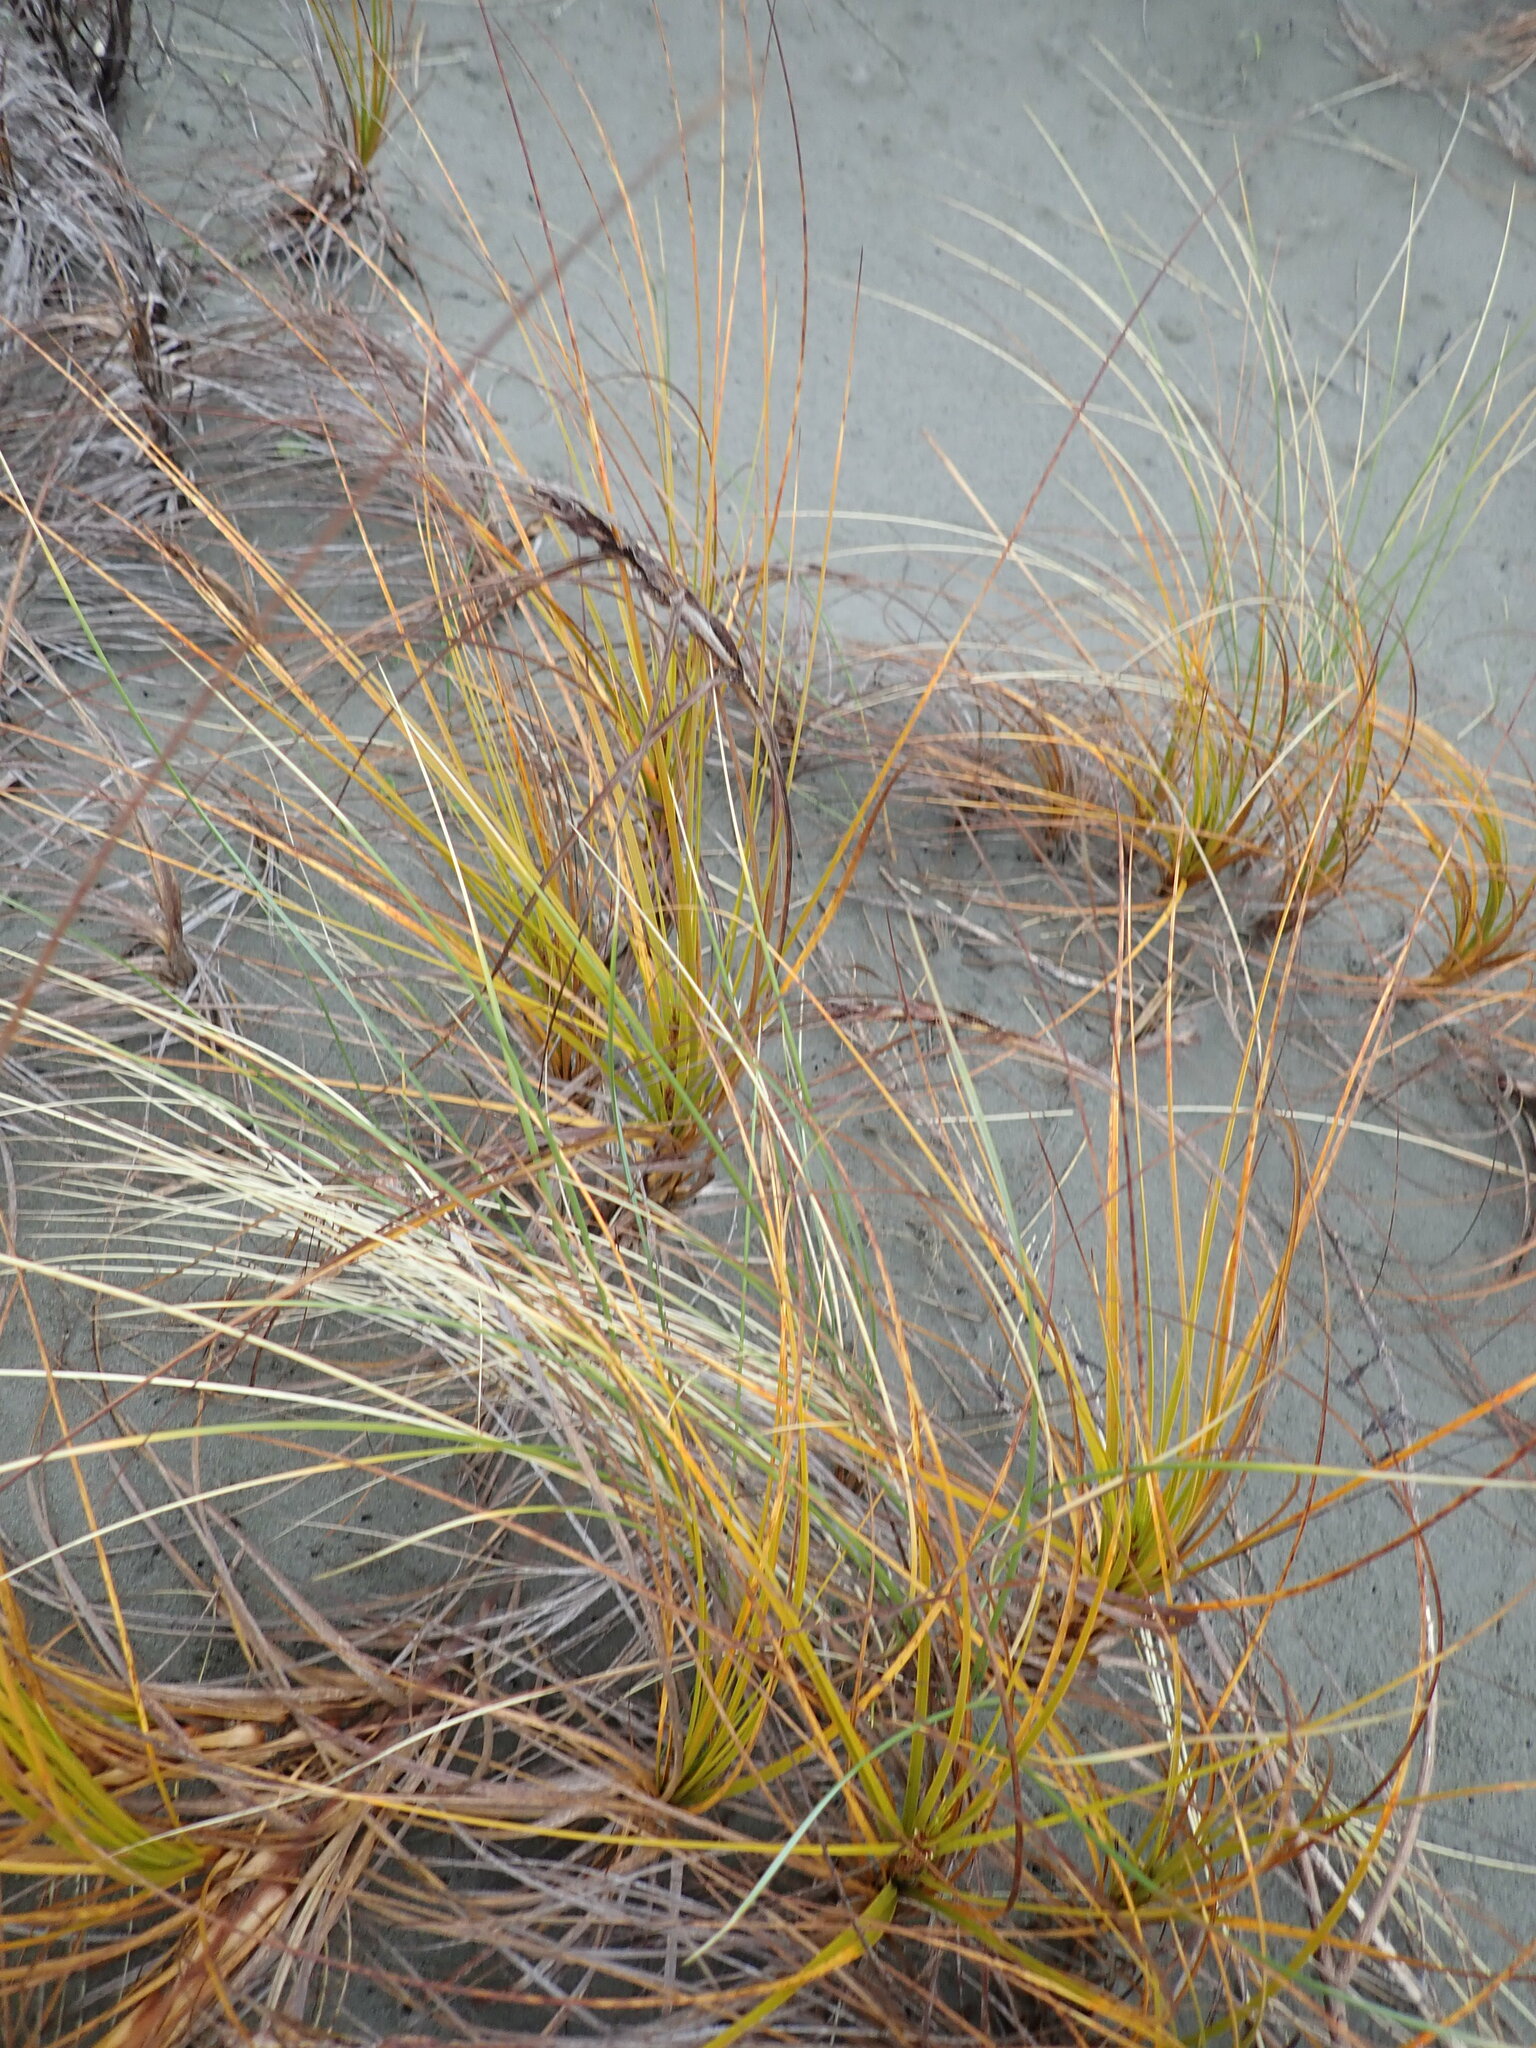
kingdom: Plantae
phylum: Tracheophyta
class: Liliopsida
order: Poales
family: Cyperaceae
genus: Ficinia
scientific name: Ficinia spiralis
